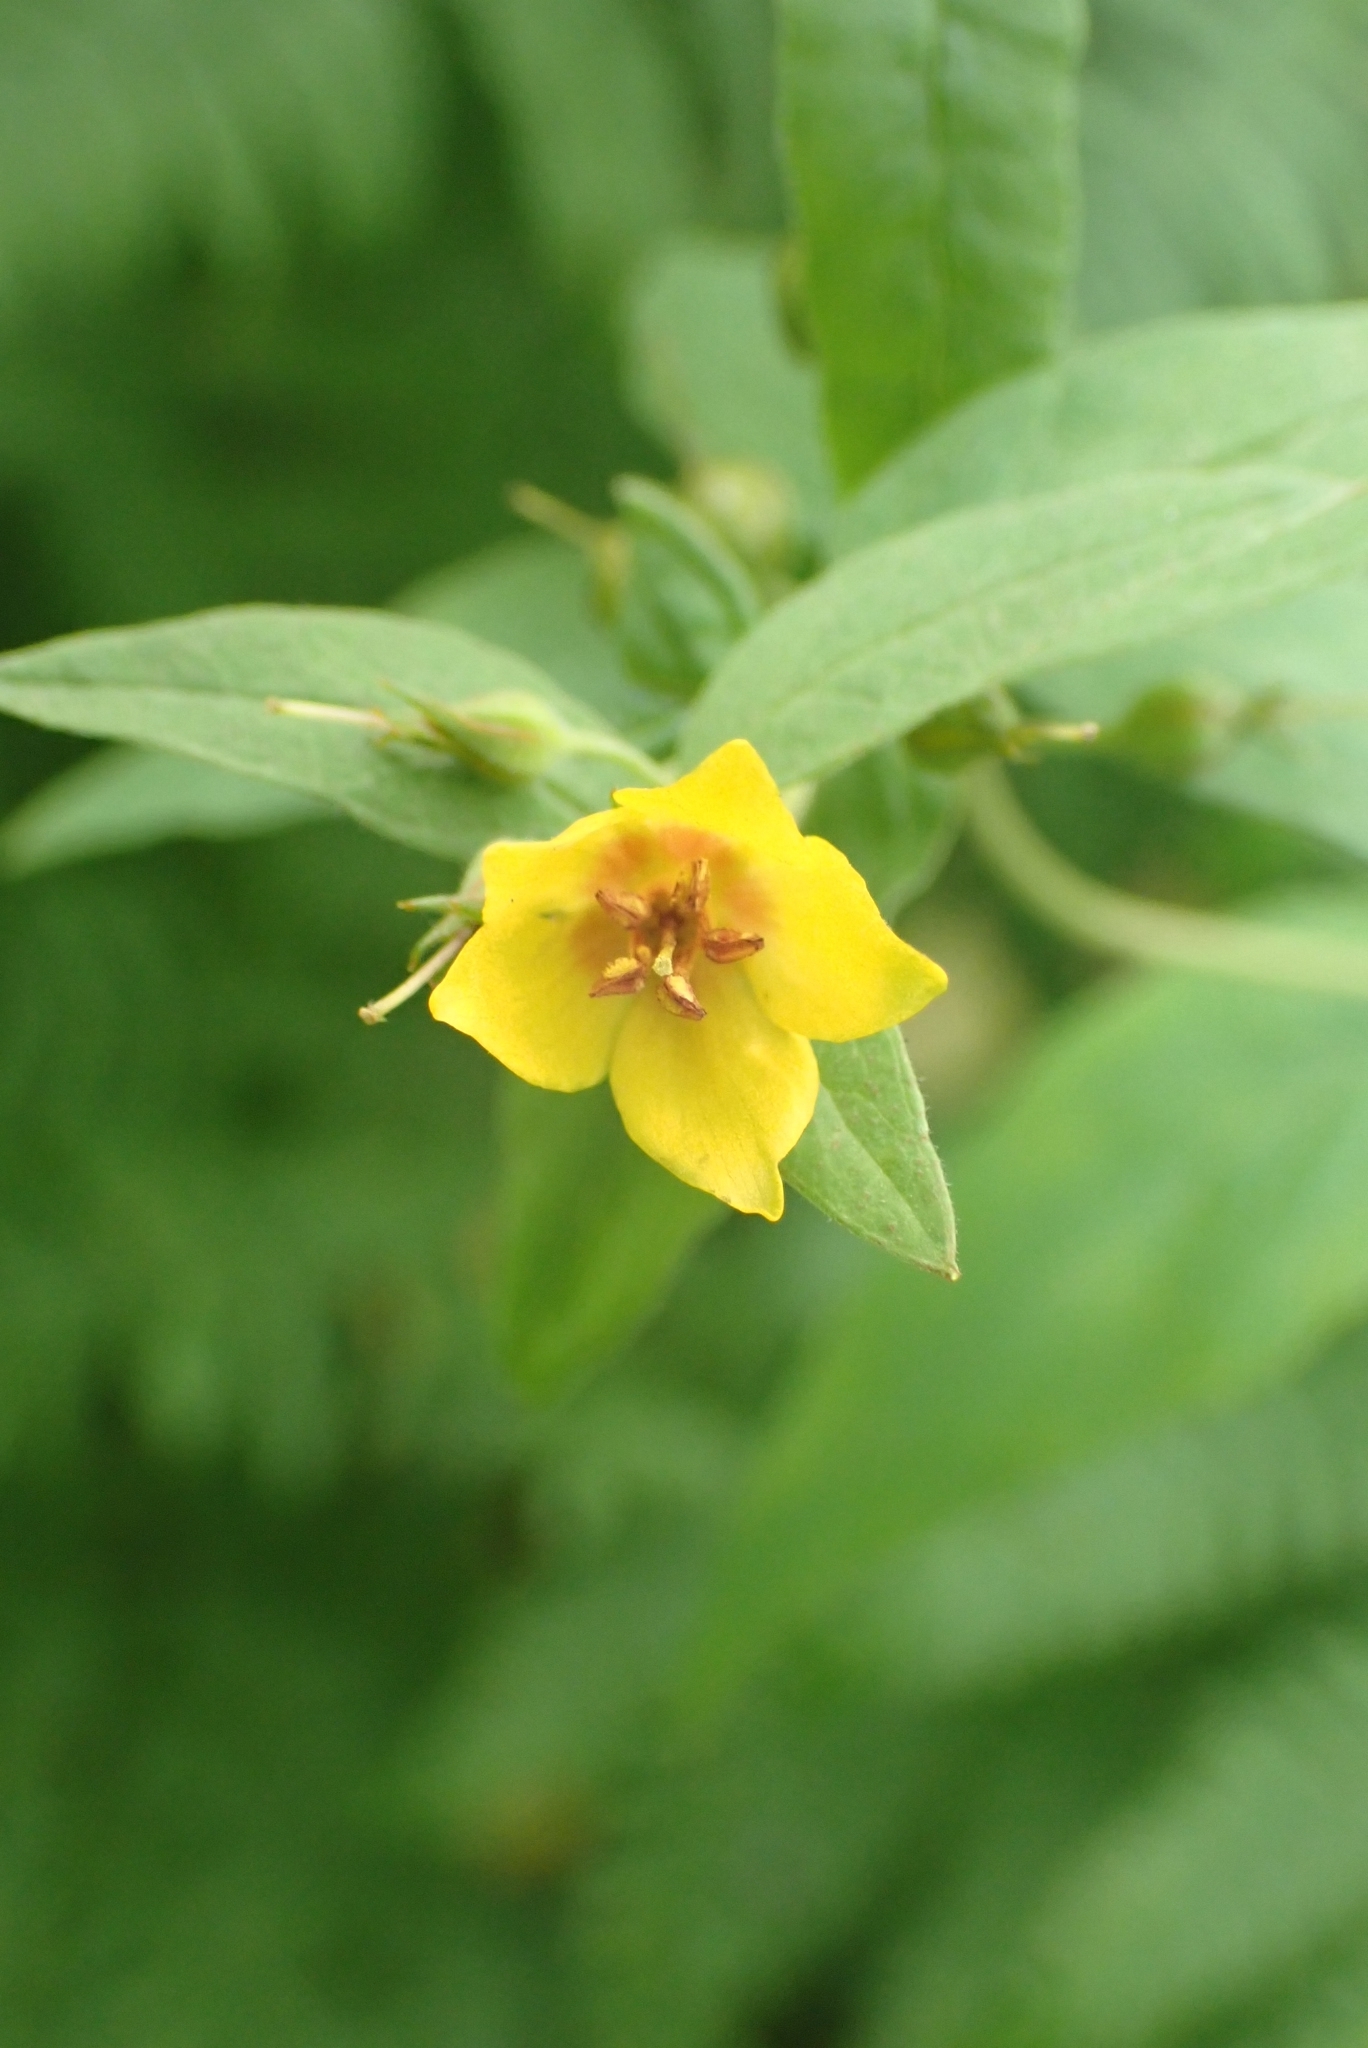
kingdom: Plantae
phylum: Tracheophyta
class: Magnoliopsida
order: Ericales
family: Primulaceae
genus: Lysimachia
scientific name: Lysimachia vulgaris
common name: Yellow loosestrife
